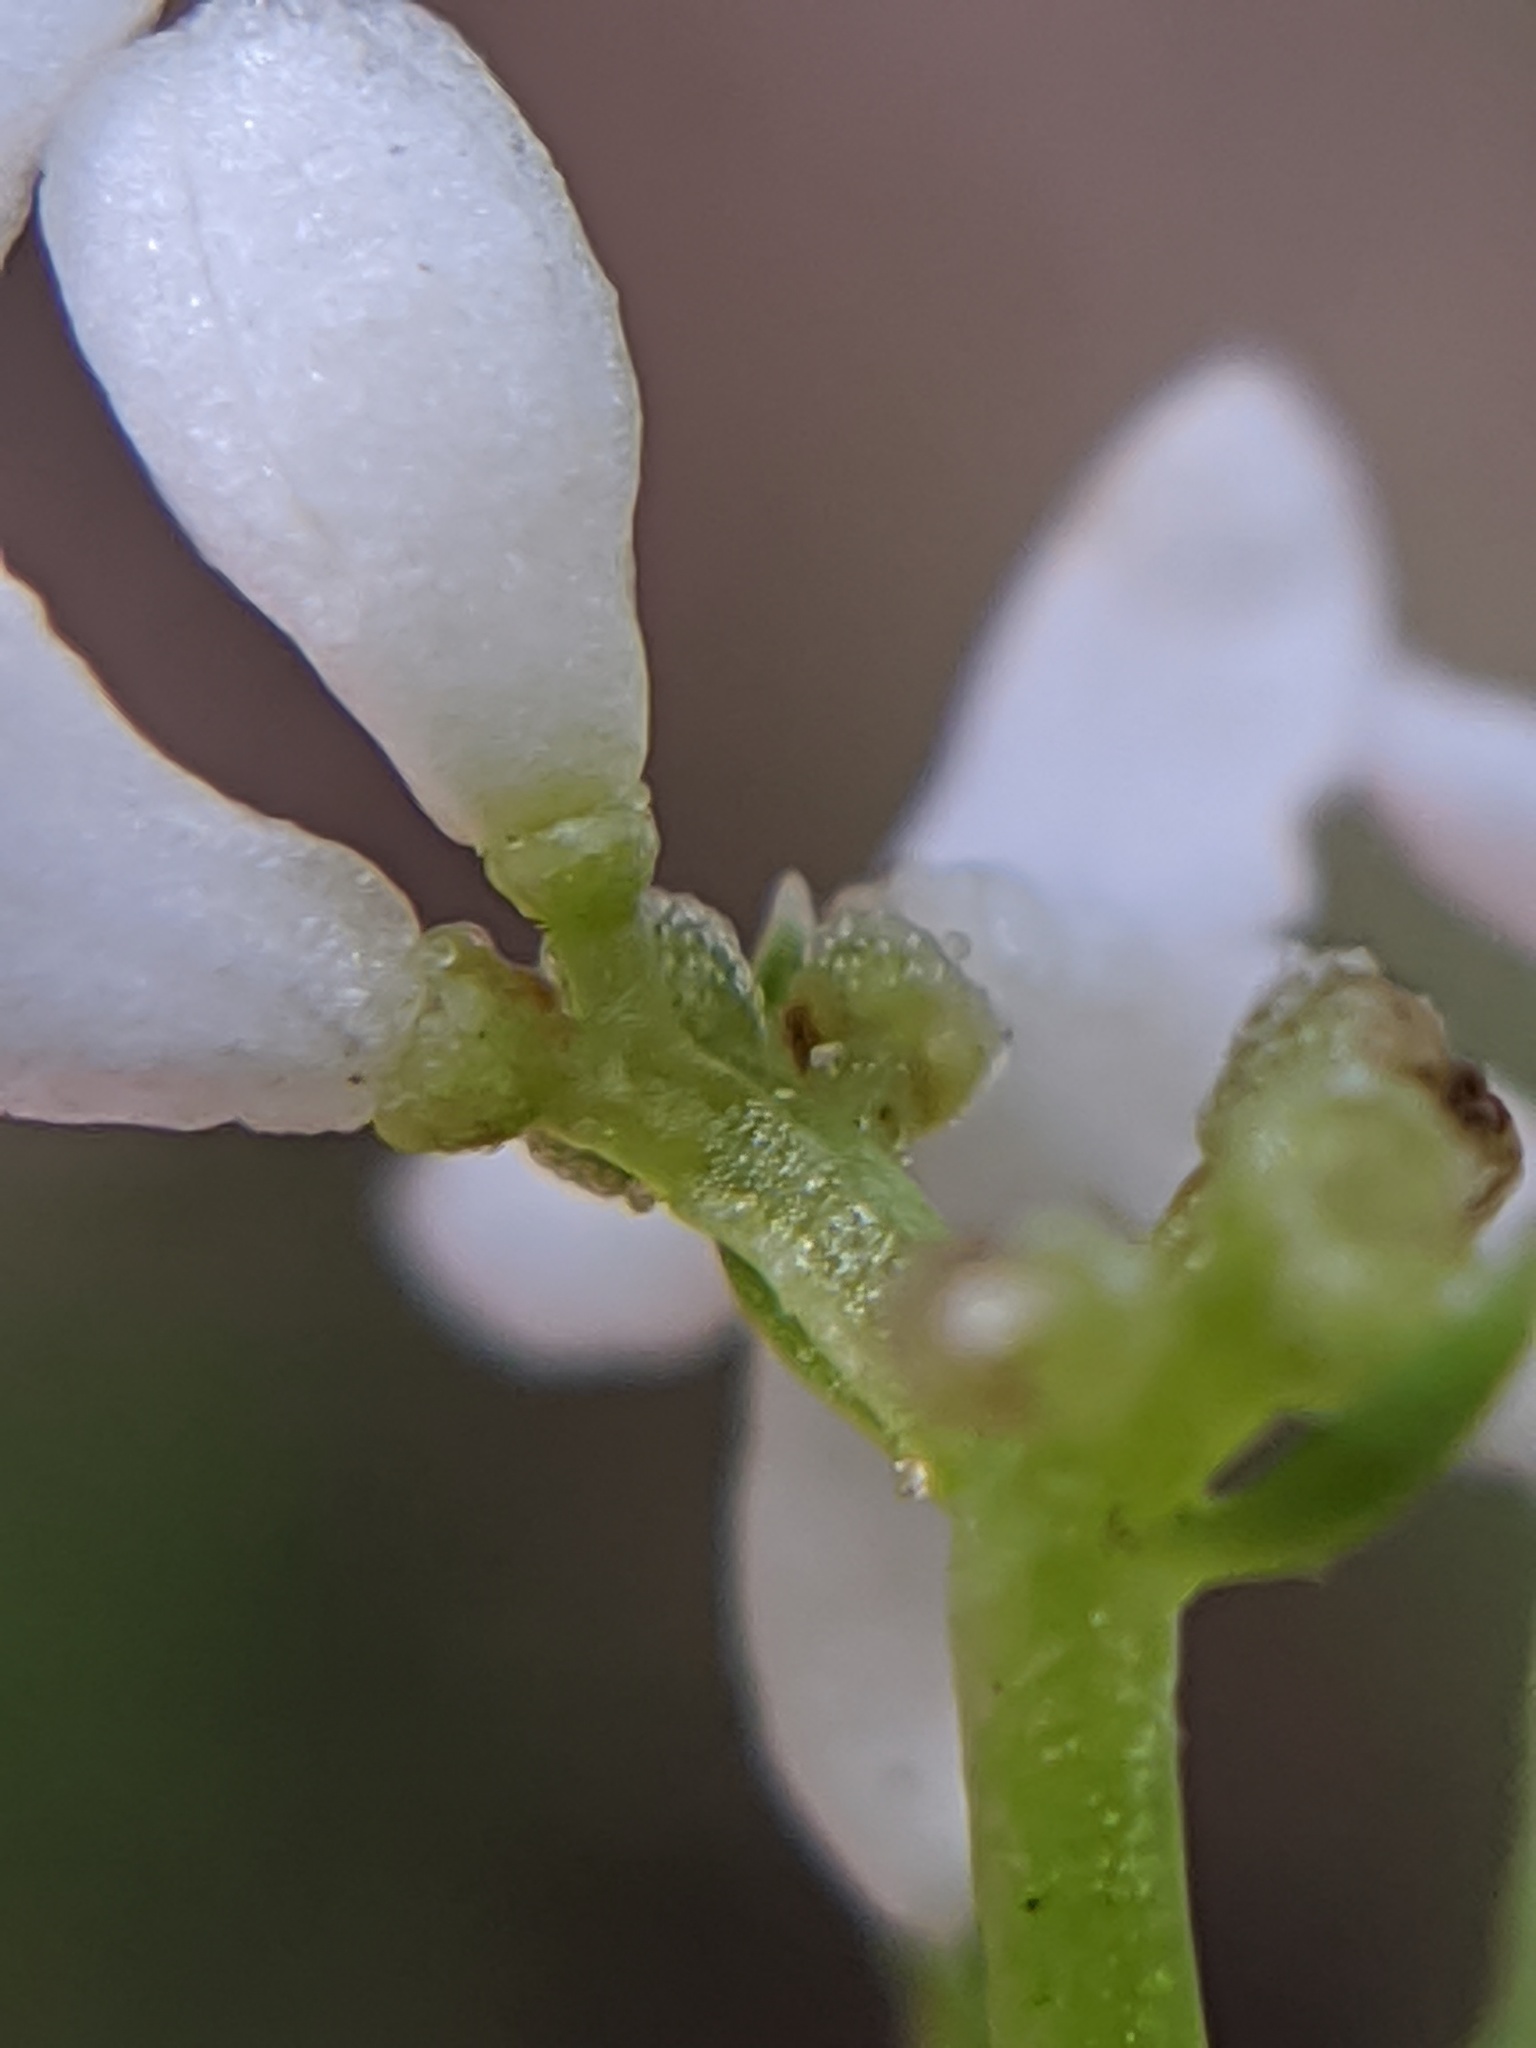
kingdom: Plantae
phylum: Tracheophyta
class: Magnoliopsida
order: Gentianales
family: Rubiaceae
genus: Galium
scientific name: Galium odoratum
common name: Sweet woodruff
